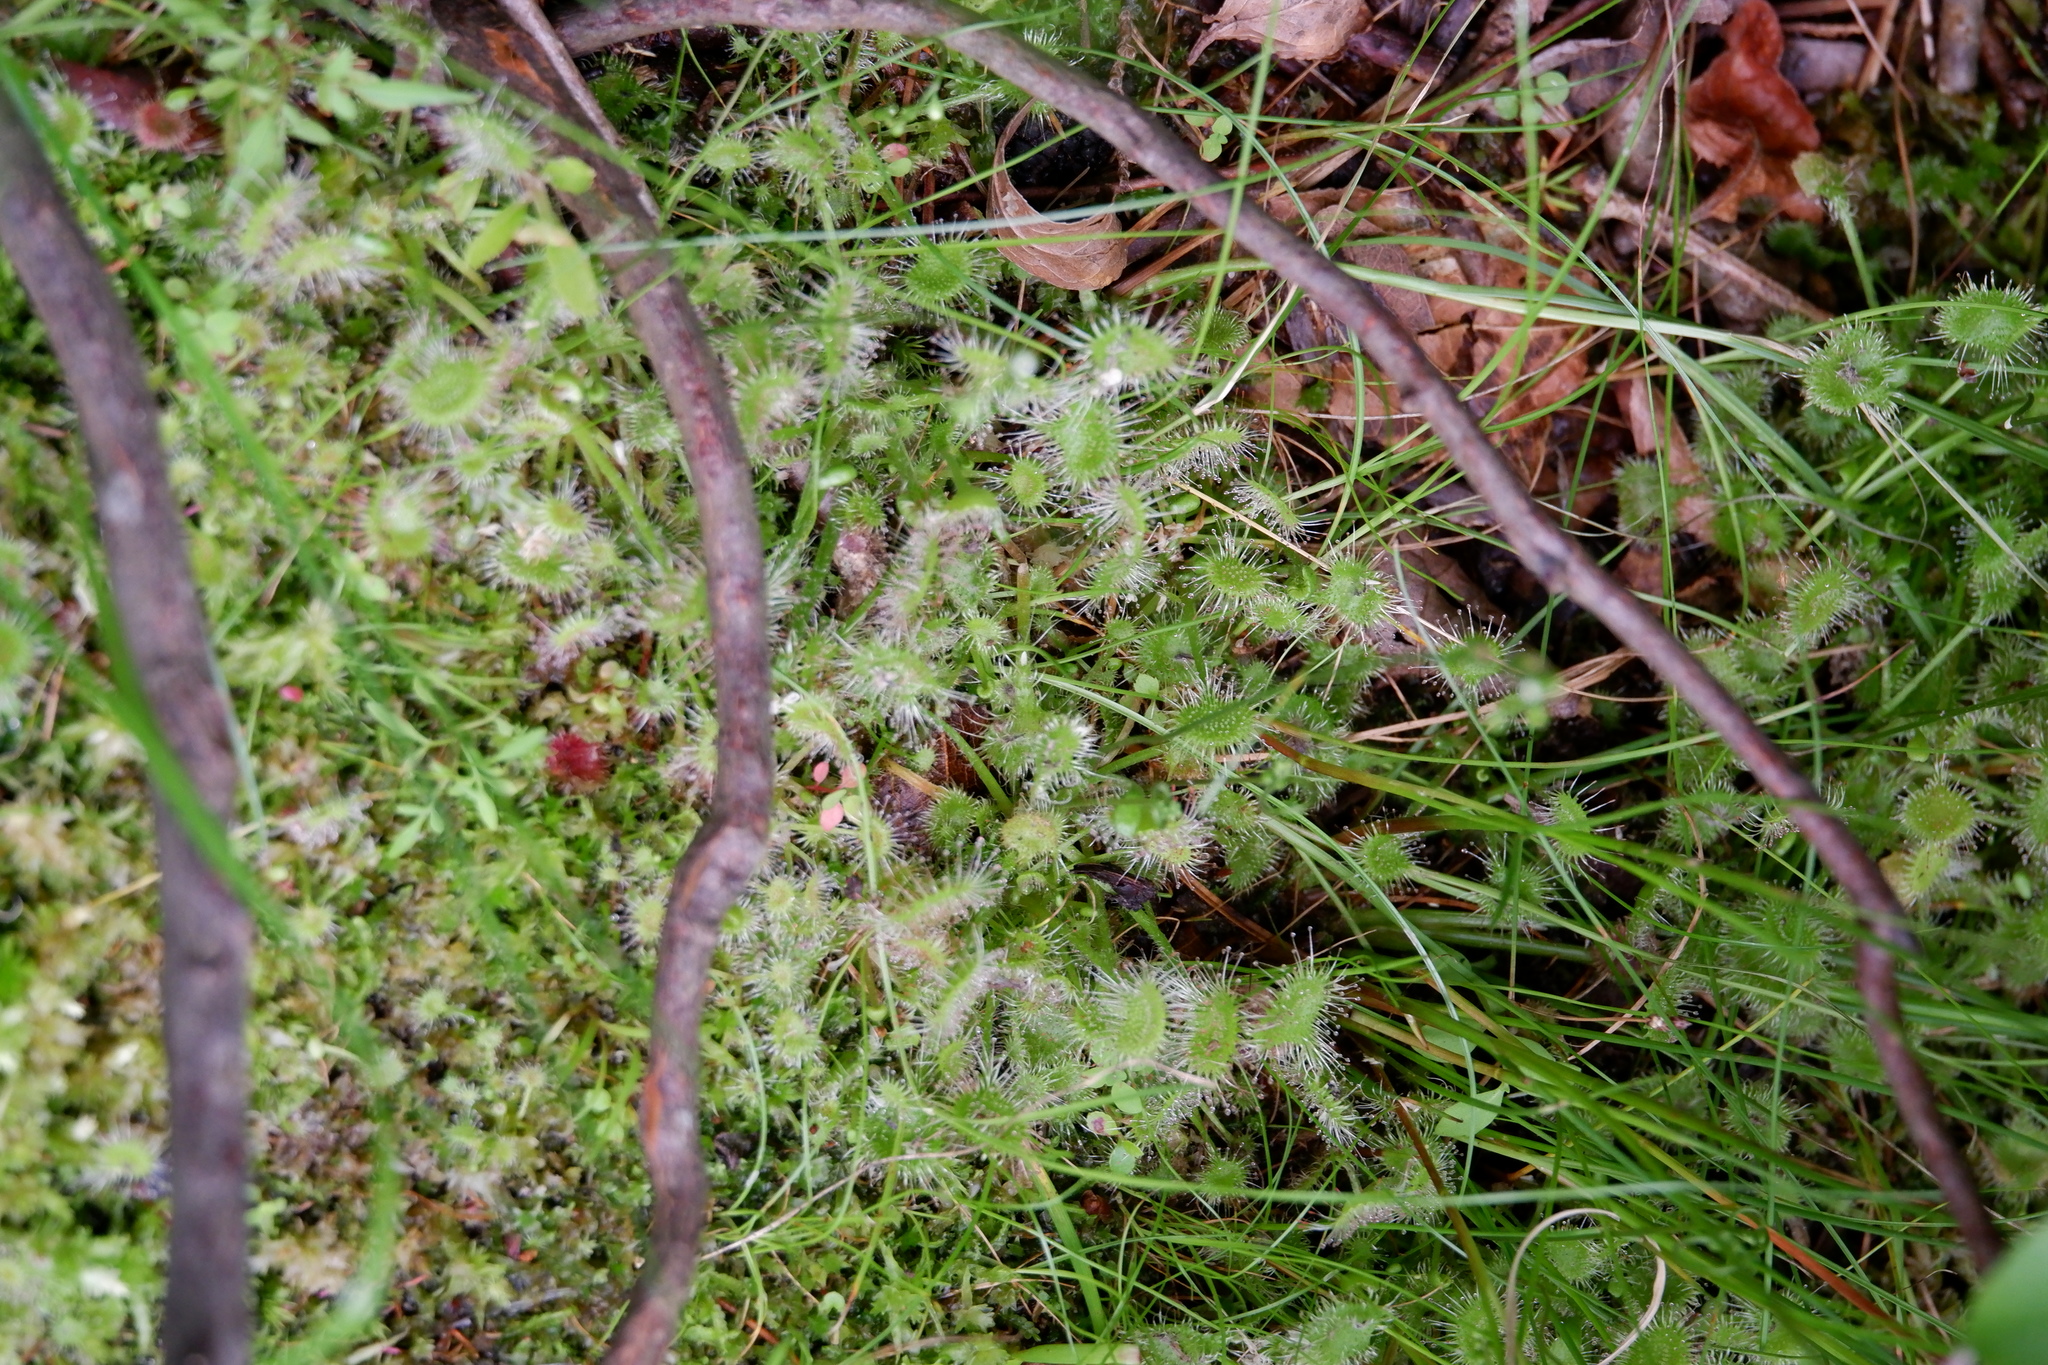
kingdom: Plantae
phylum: Tracheophyta
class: Magnoliopsida
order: Caryophyllales
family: Droseraceae
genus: Drosera
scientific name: Drosera rotundifolia
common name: Round-leaved sundew
